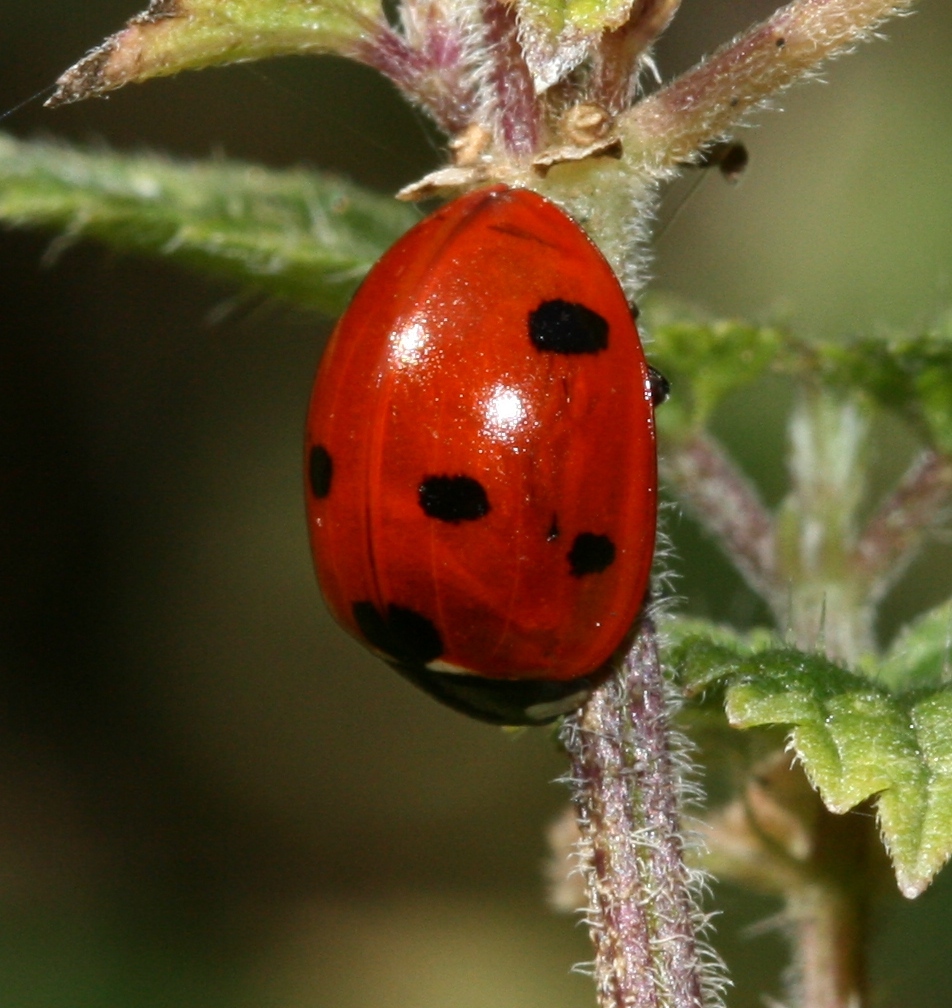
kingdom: Animalia
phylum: Arthropoda
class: Insecta
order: Coleoptera
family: Coccinellidae
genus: Coccinella
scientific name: Coccinella septempunctata
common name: Sevenspotted lady beetle
